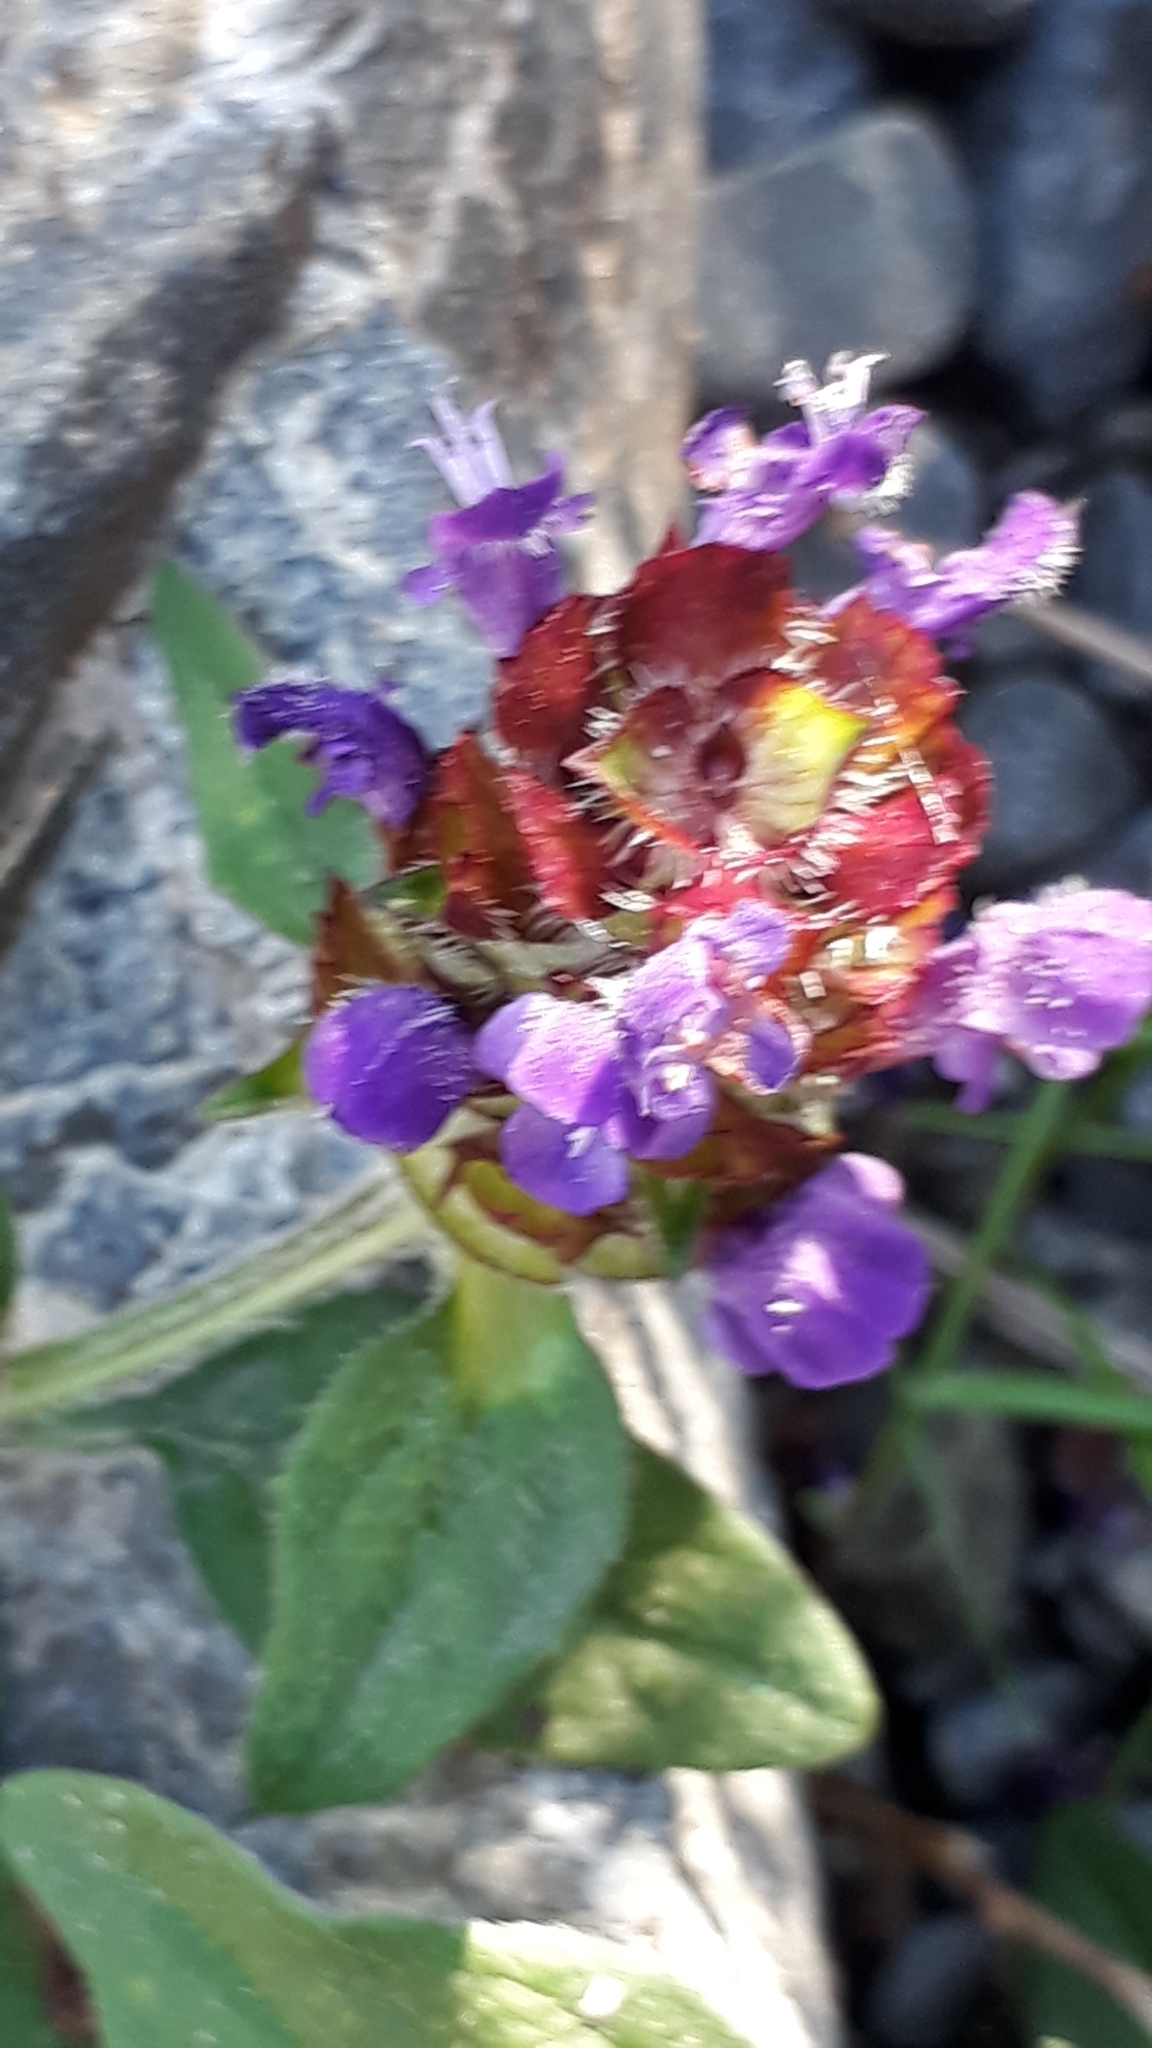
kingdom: Plantae
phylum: Tracheophyta
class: Magnoliopsida
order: Lamiales
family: Lamiaceae
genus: Prunella
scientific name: Prunella vulgaris
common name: Heal-all
